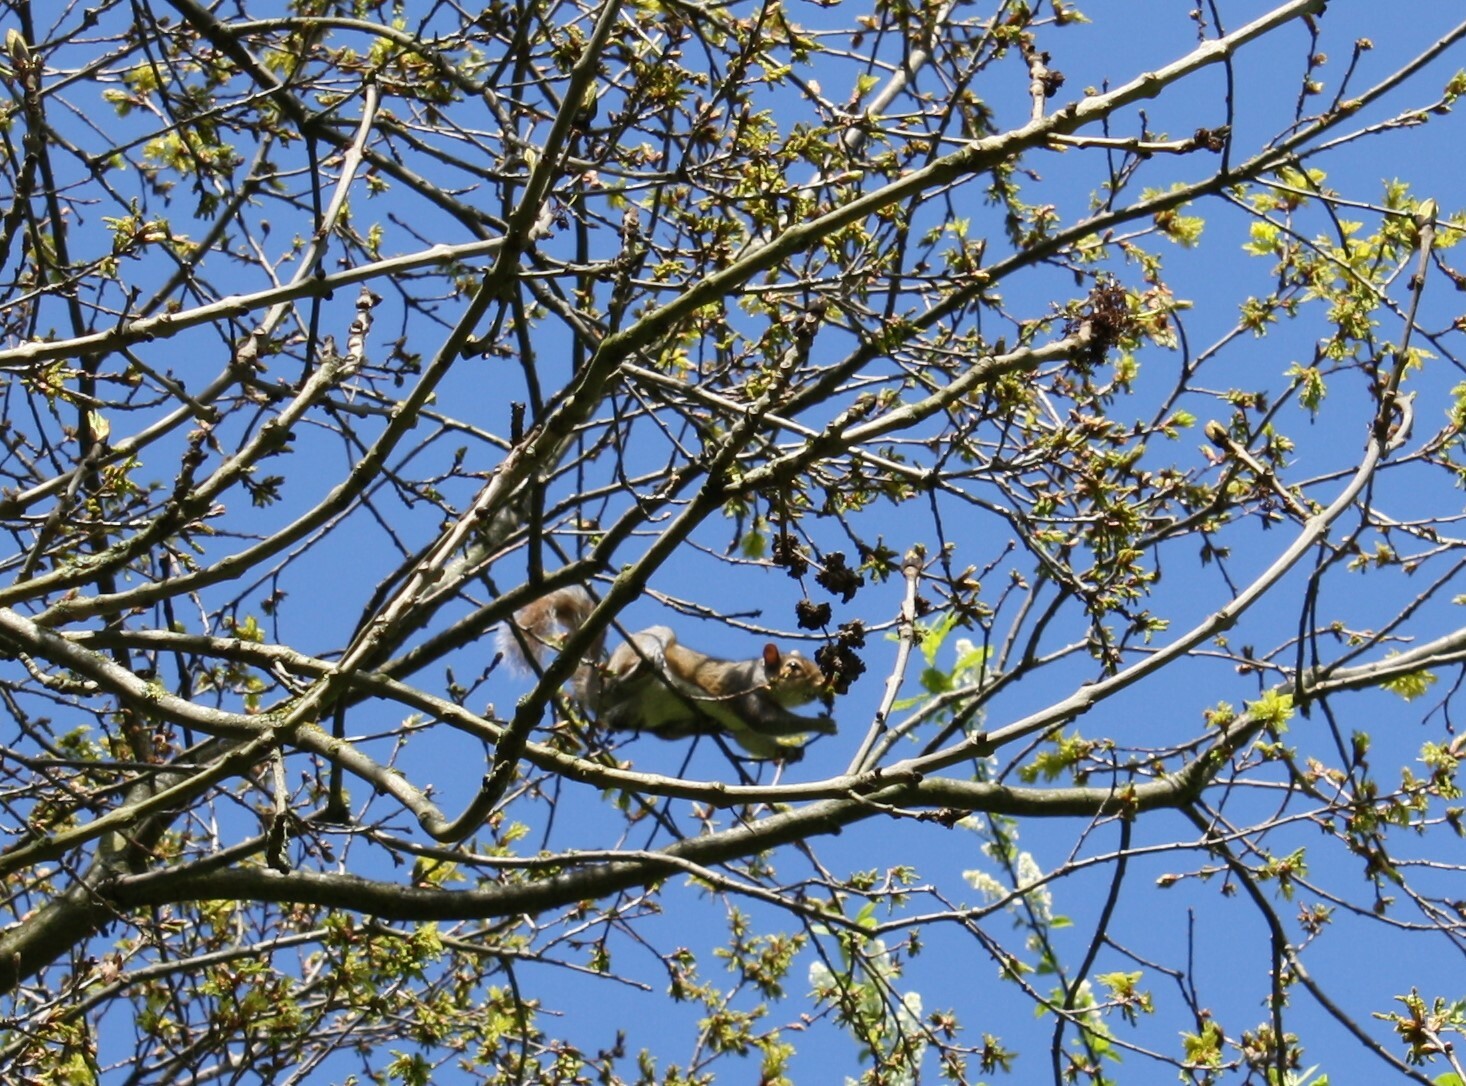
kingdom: Animalia
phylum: Chordata
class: Mammalia
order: Rodentia
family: Sciuridae
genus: Sciurus
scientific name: Sciurus carolinensis
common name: Eastern gray squirrel
